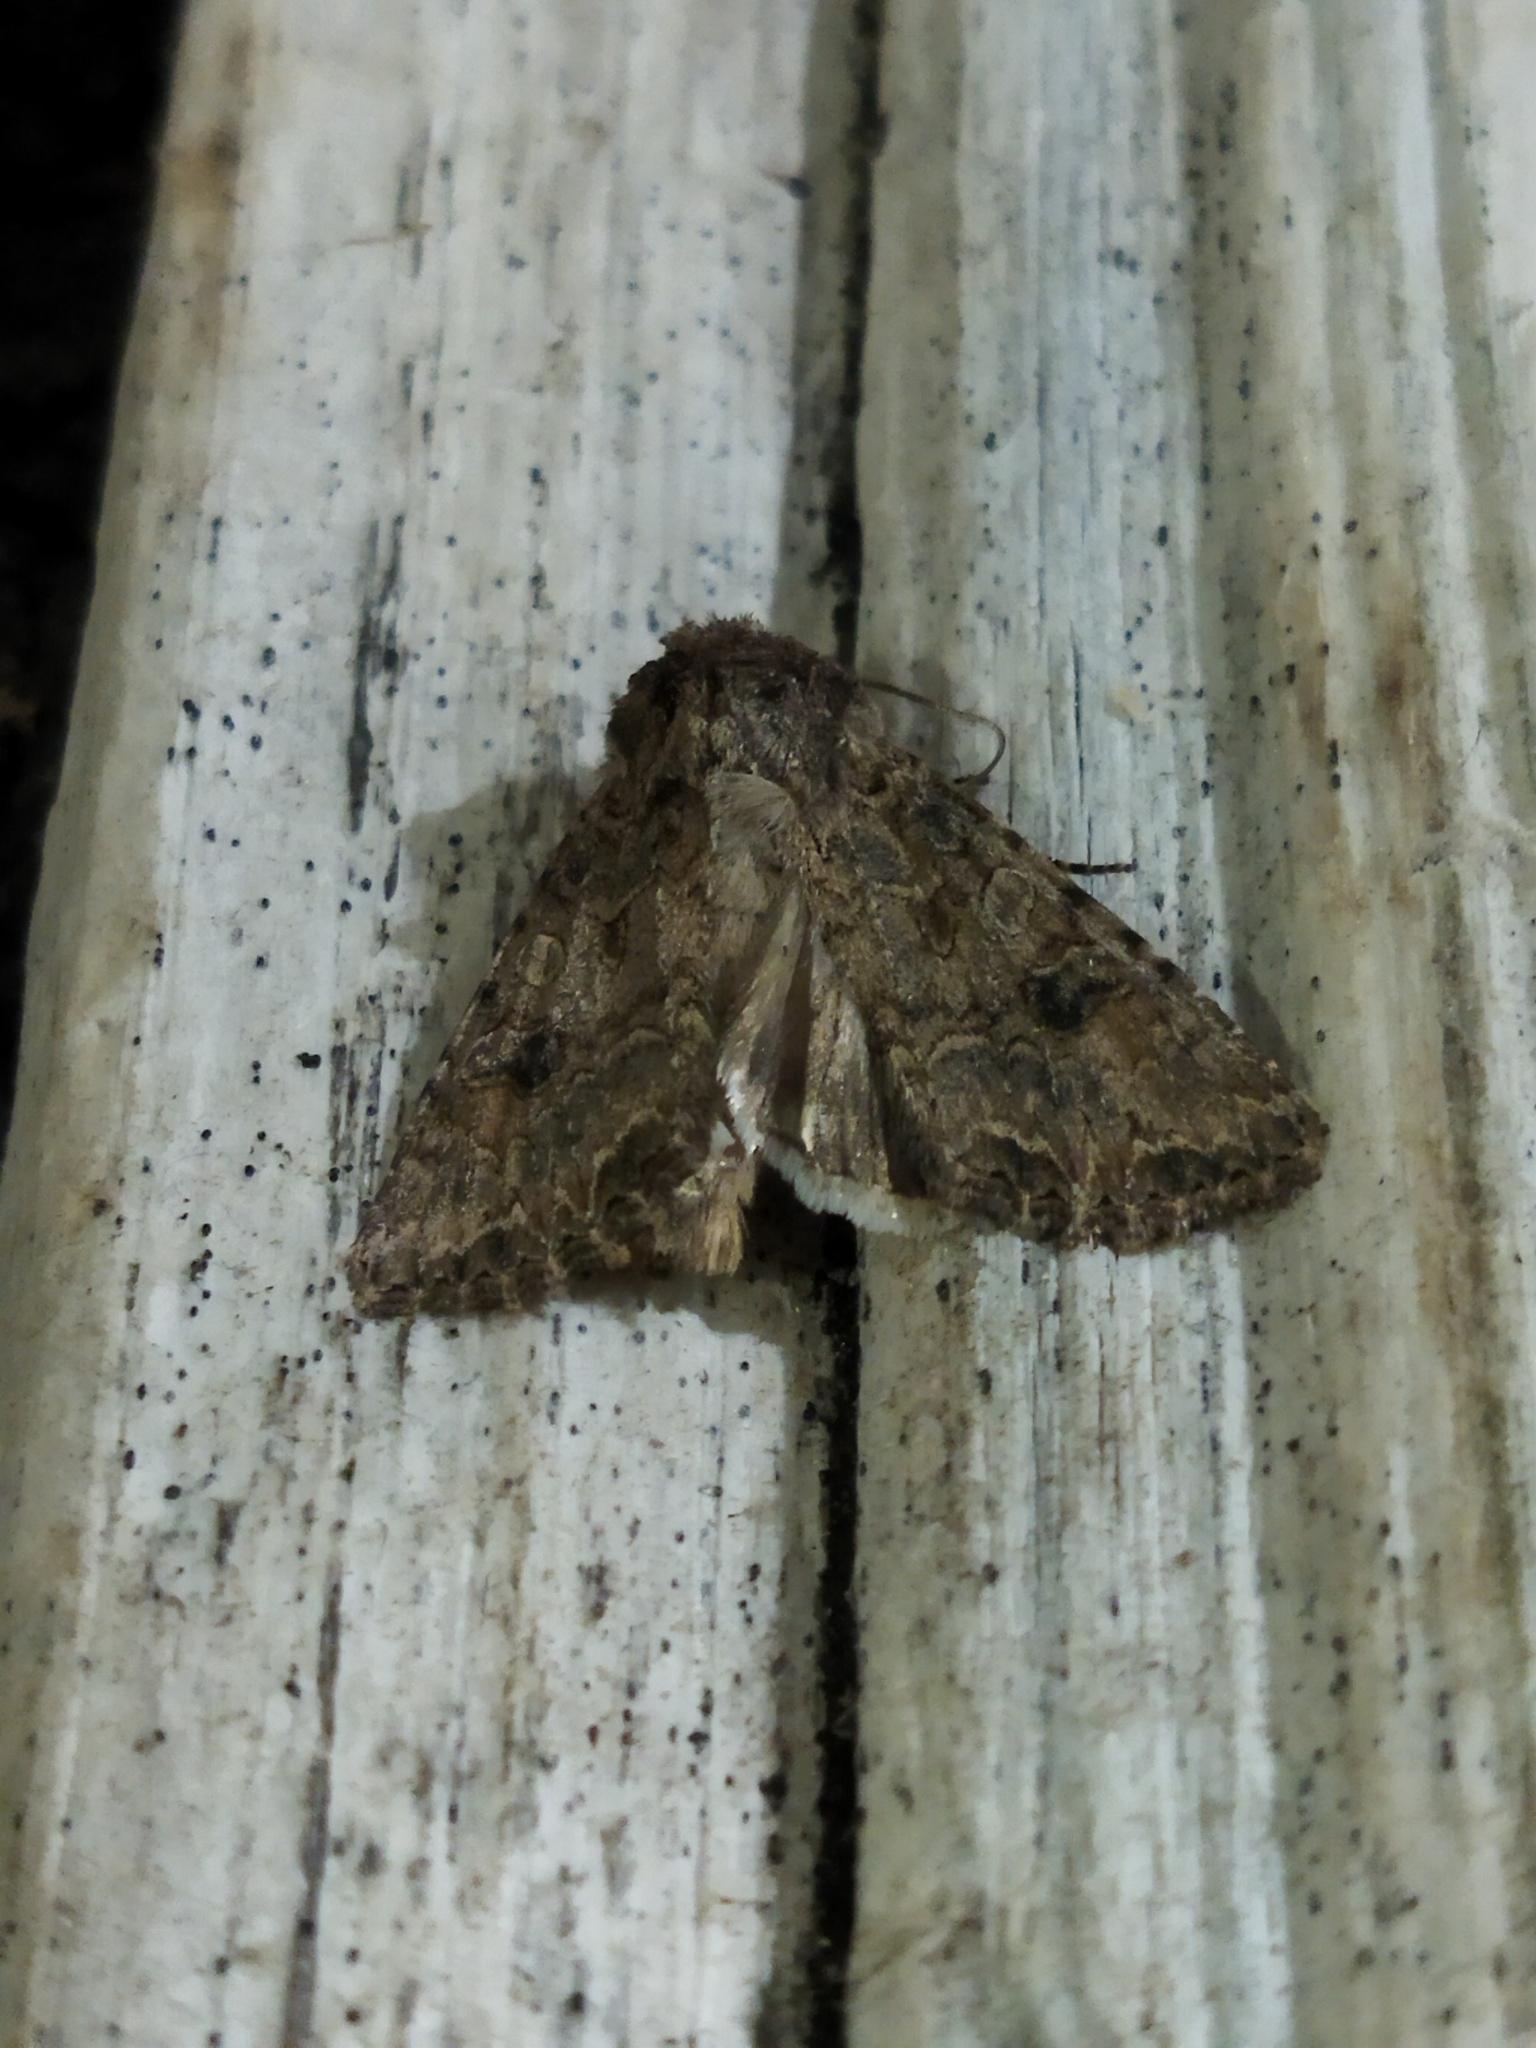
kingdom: Animalia
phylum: Arthropoda
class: Insecta
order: Lepidoptera
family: Noctuidae
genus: Anarta
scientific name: Anarta trifolii
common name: Clover cutworm moth
